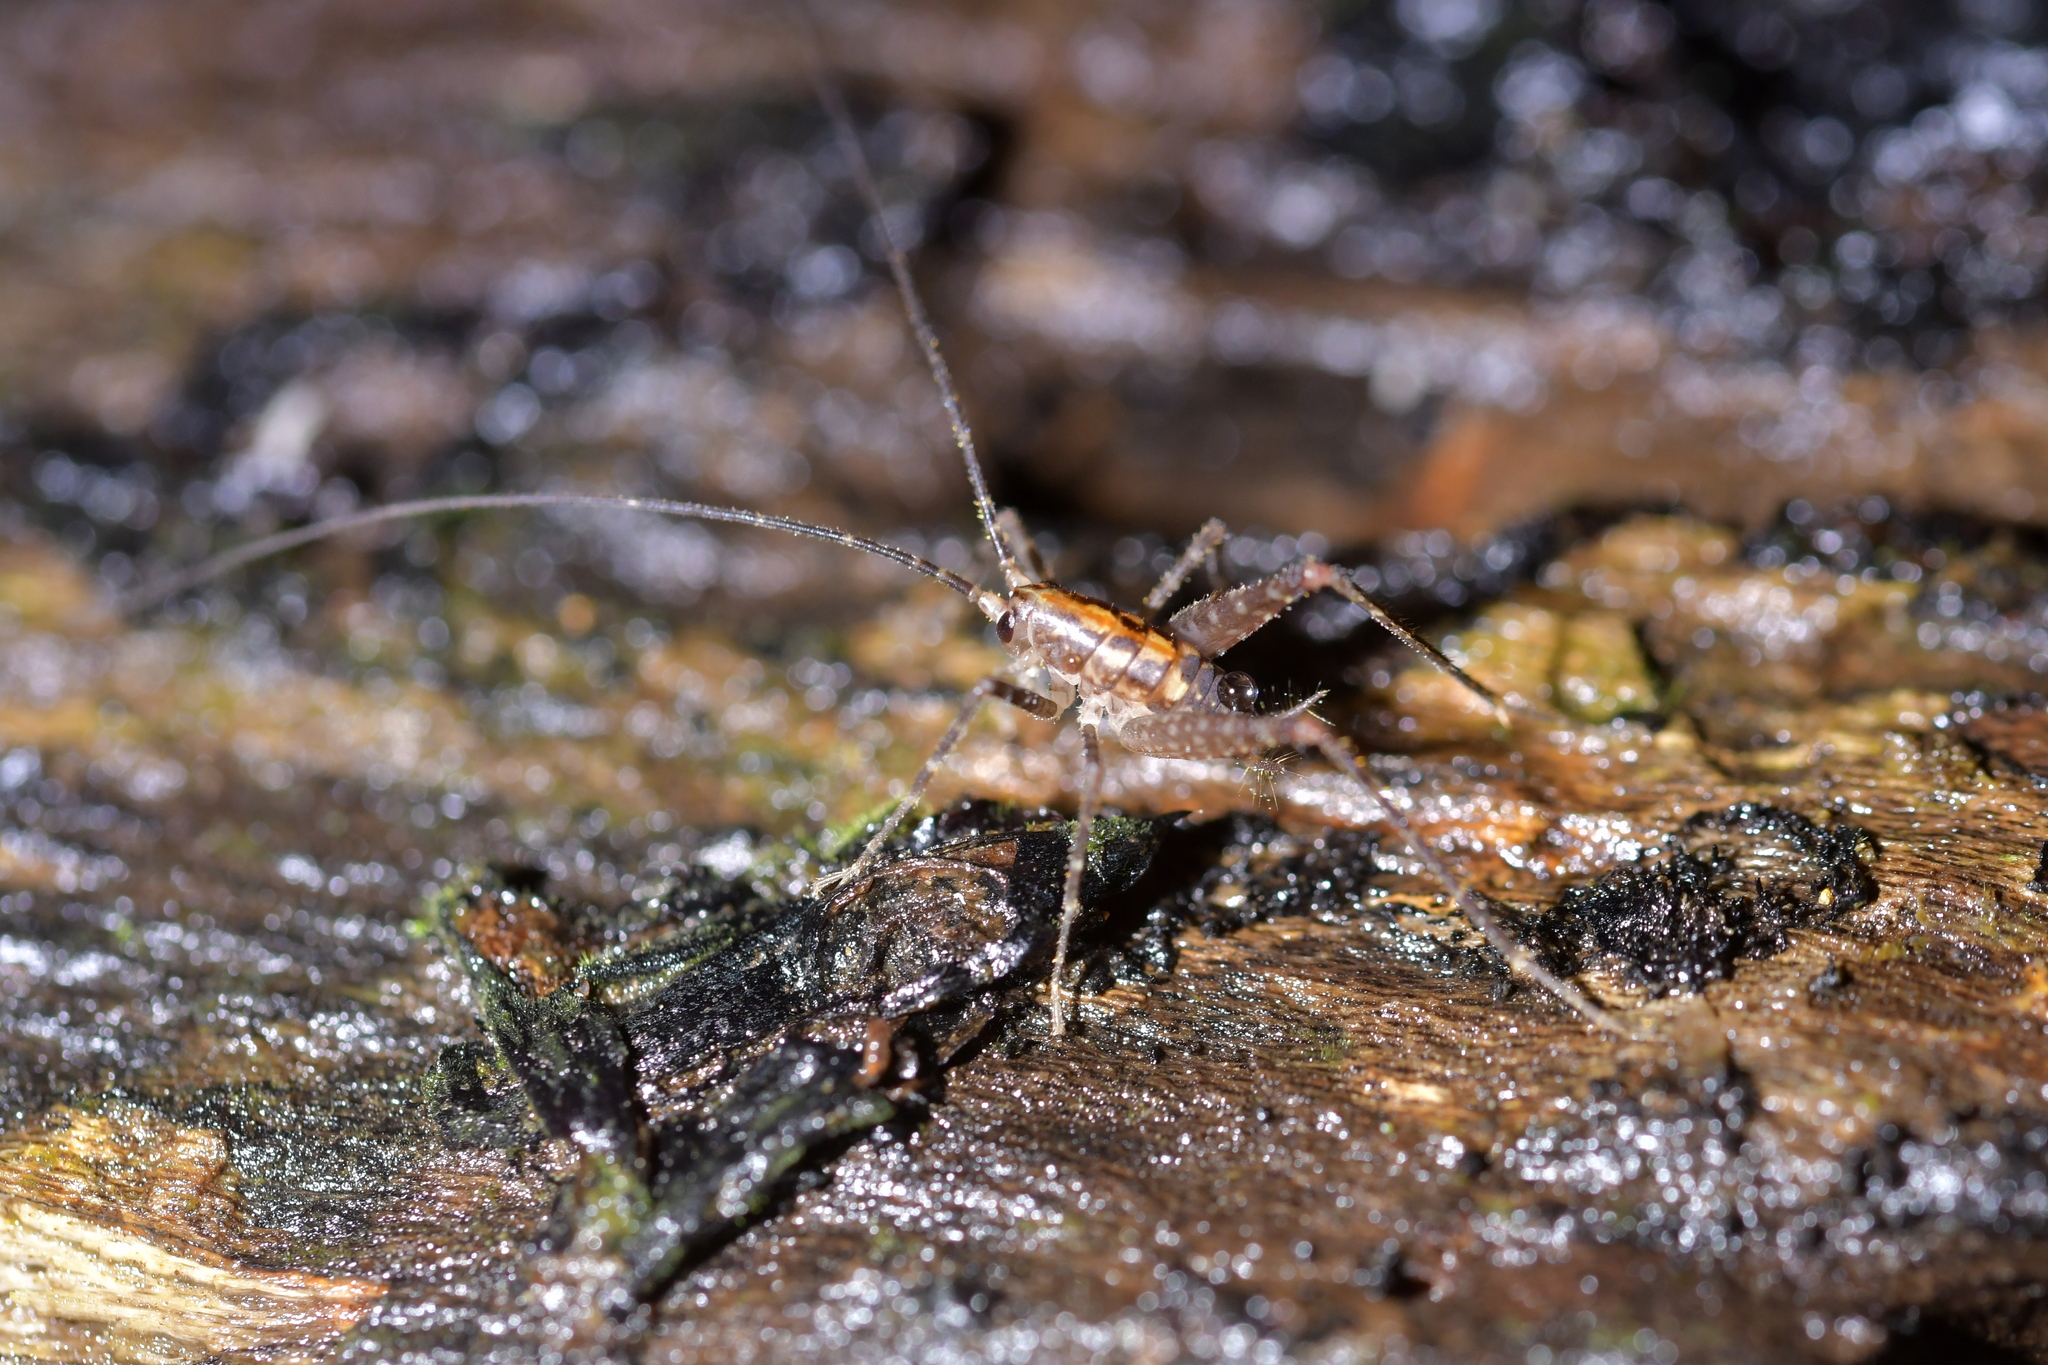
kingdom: Animalia
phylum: Arthropoda
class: Insecta
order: Orthoptera
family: Rhaphidophoridae
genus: Miotopus
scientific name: Miotopus diversus
